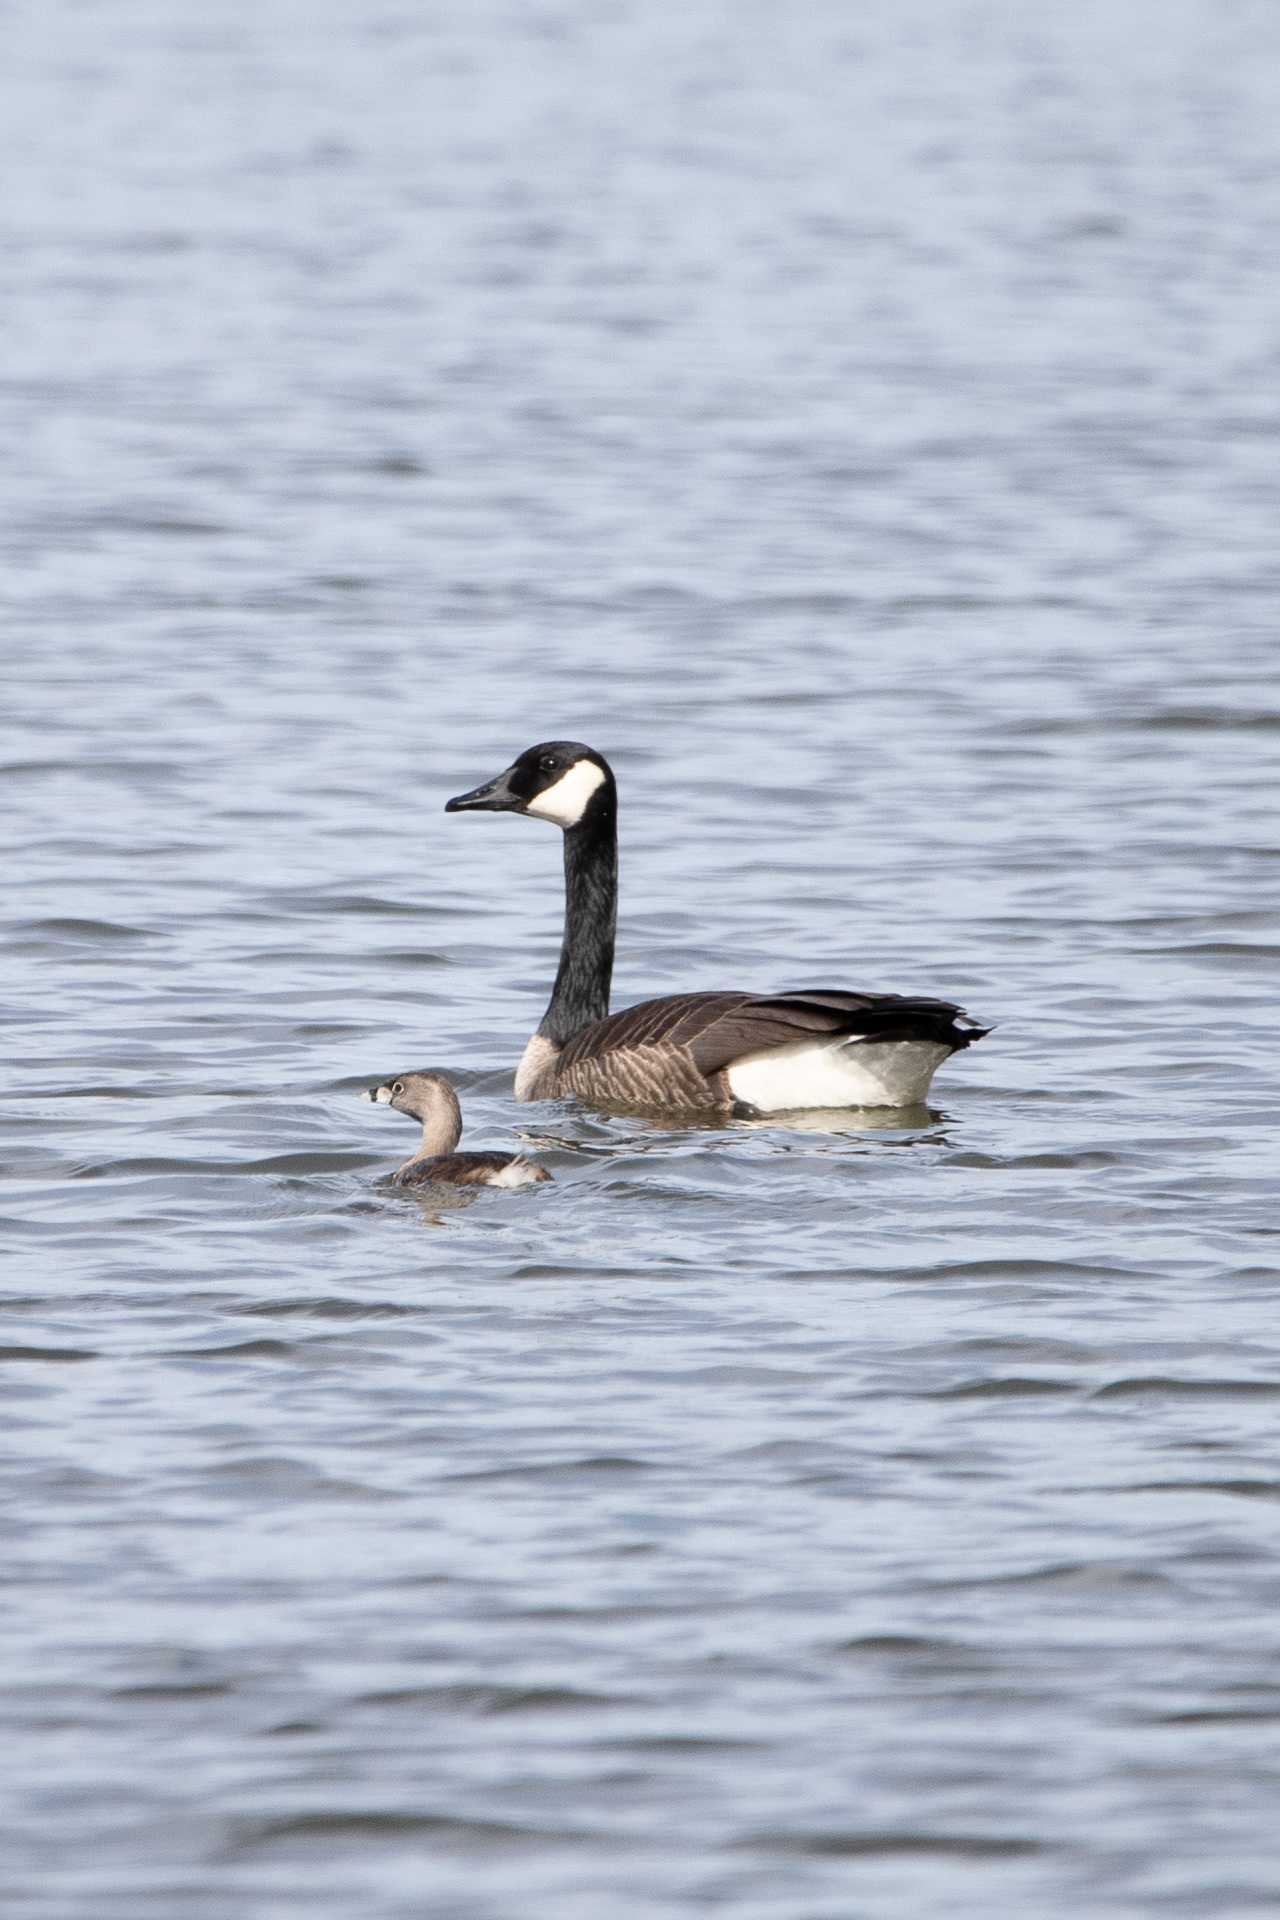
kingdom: Animalia
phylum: Chordata
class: Aves
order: Podicipediformes
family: Podicipedidae
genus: Podilymbus
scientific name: Podilymbus podiceps
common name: Pied-billed grebe
